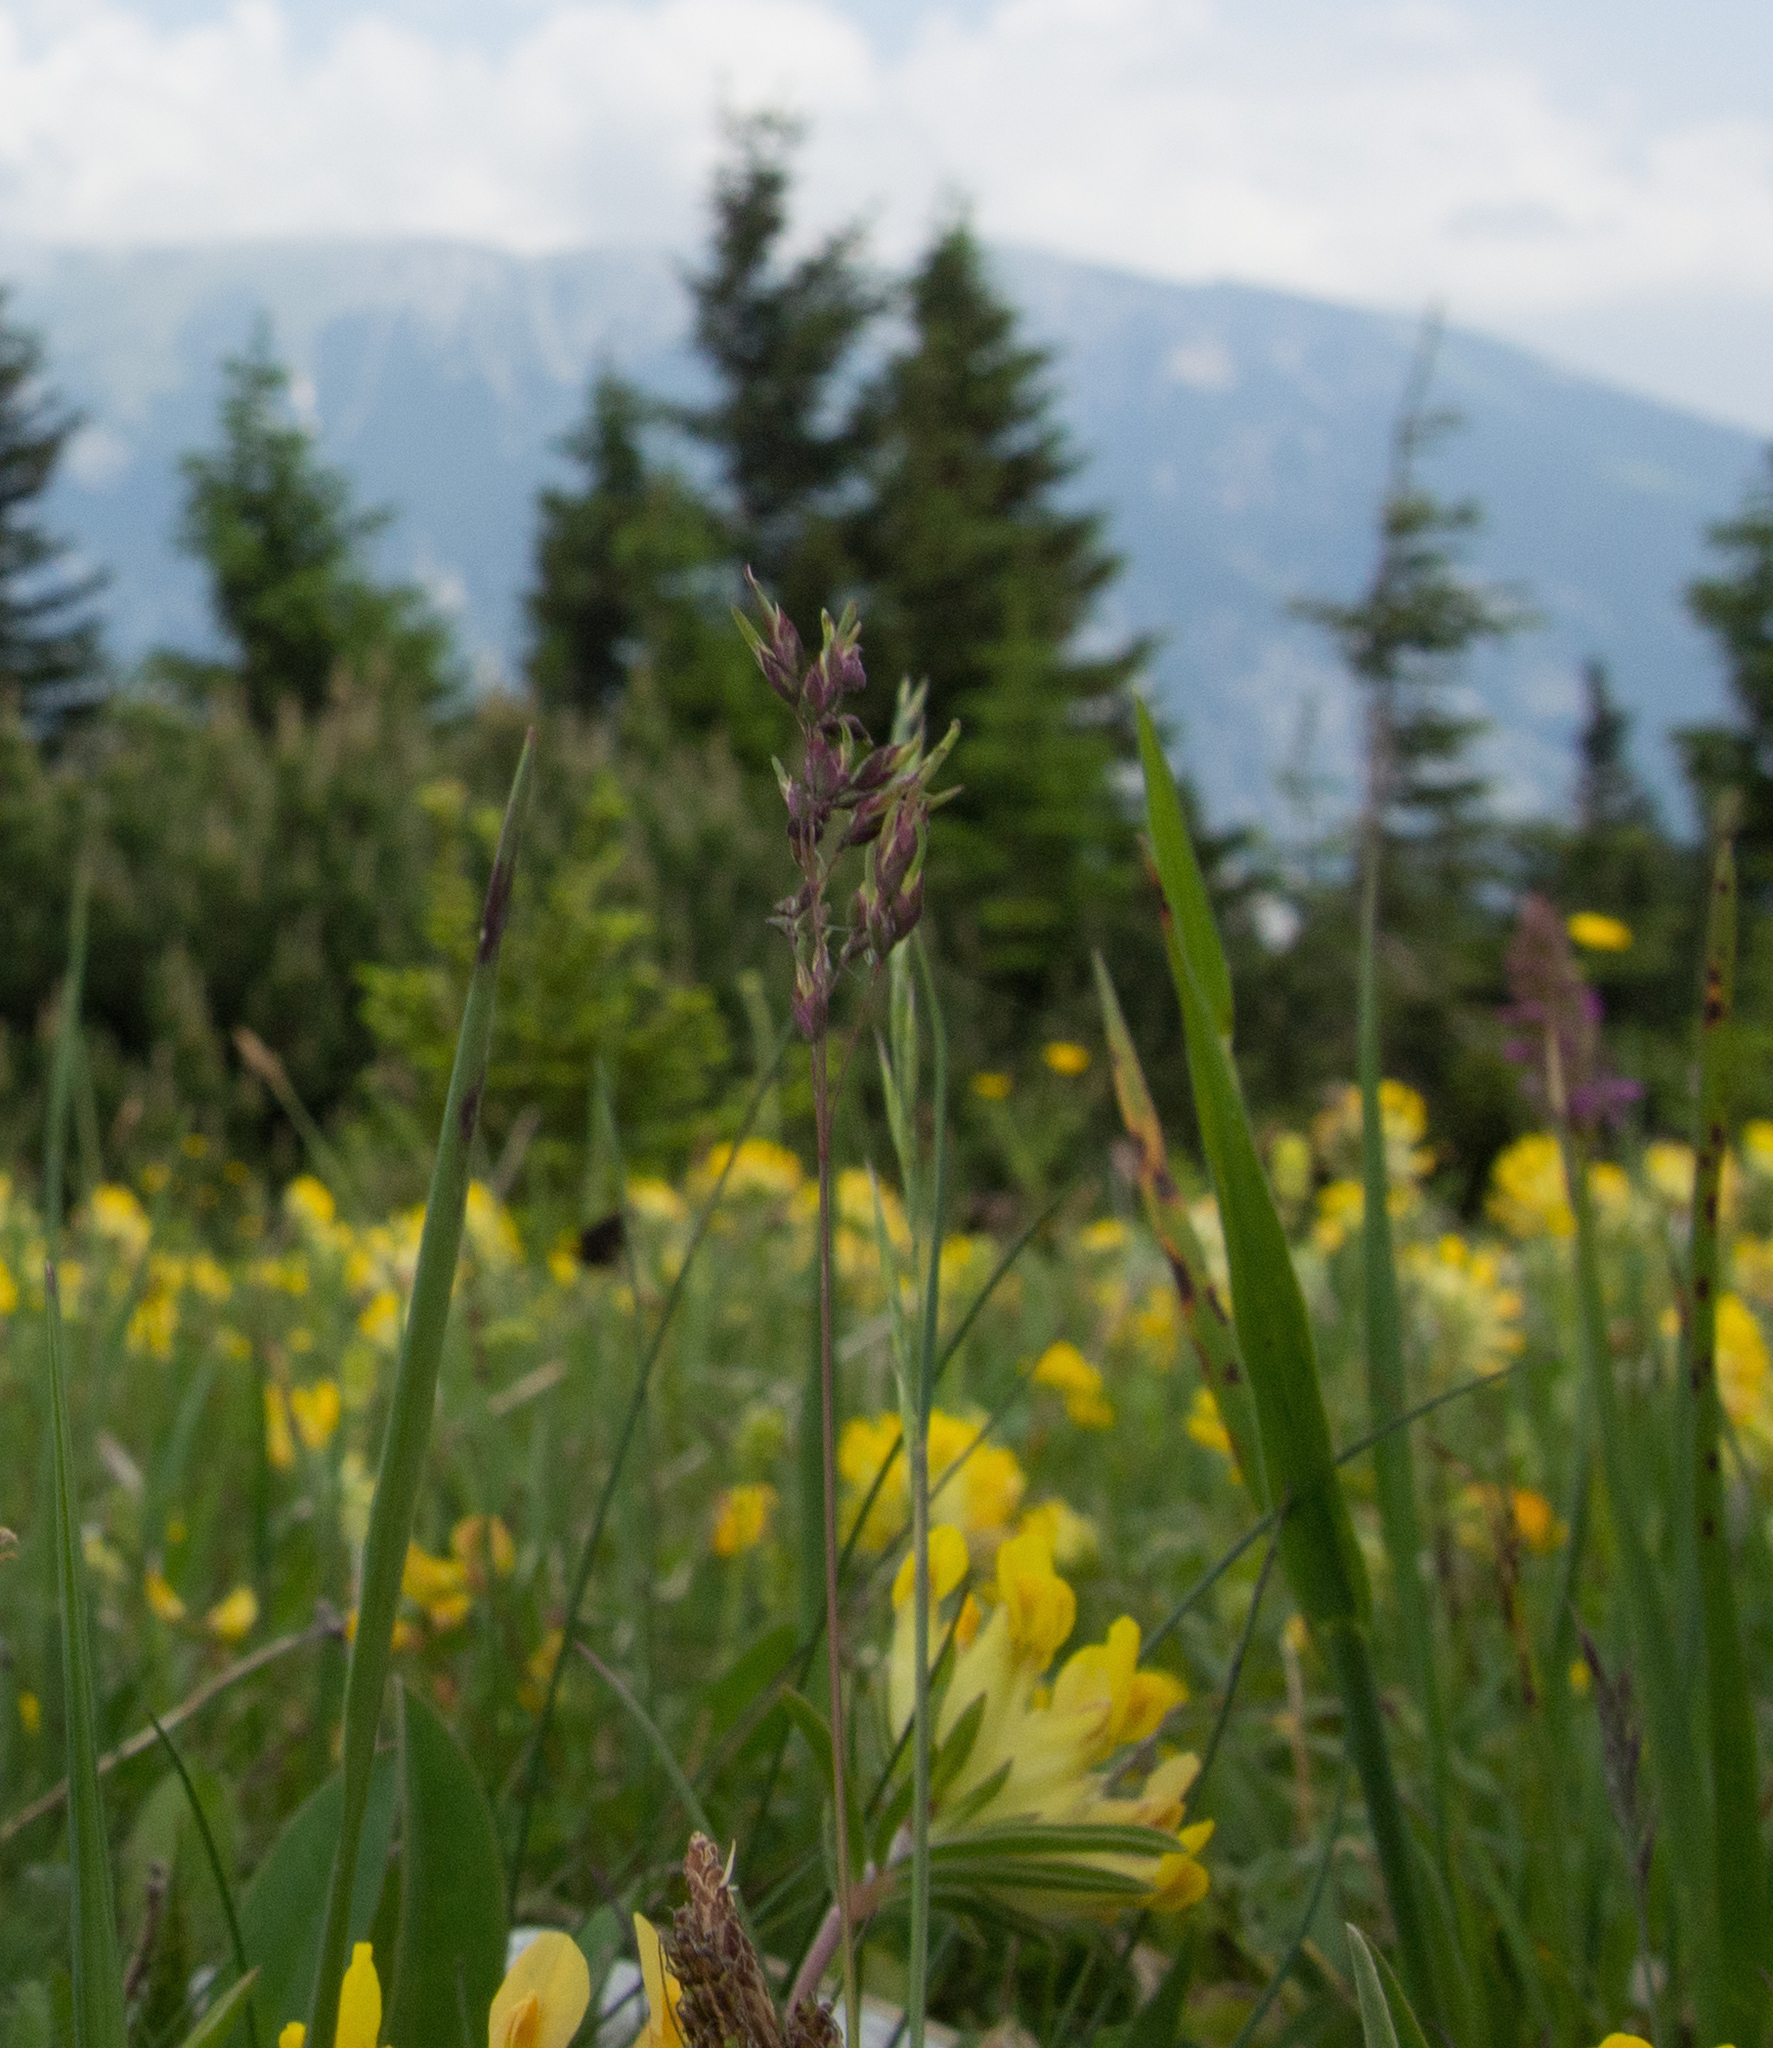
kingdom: Plantae
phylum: Tracheophyta
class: Liliopsida
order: Poales
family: Poaceae
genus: Poa
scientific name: Poa alpina
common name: Alpine bluegrass
